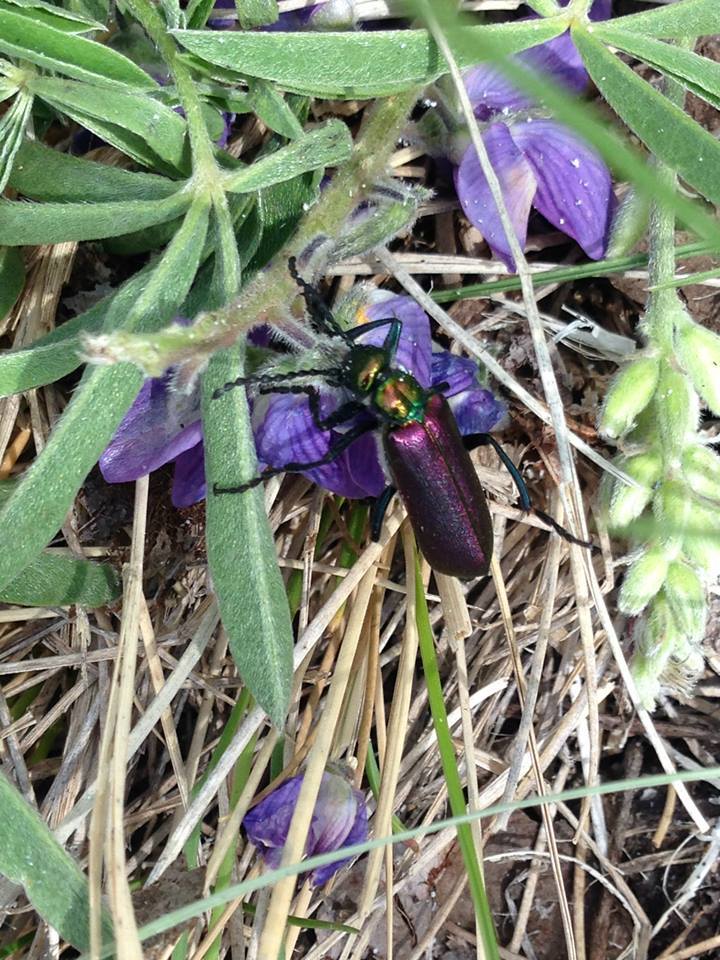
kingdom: Animalia
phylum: Arthropoda
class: Insecta
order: Coleoptera
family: Meloidae
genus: Lytta
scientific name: Lytta nuttallii
